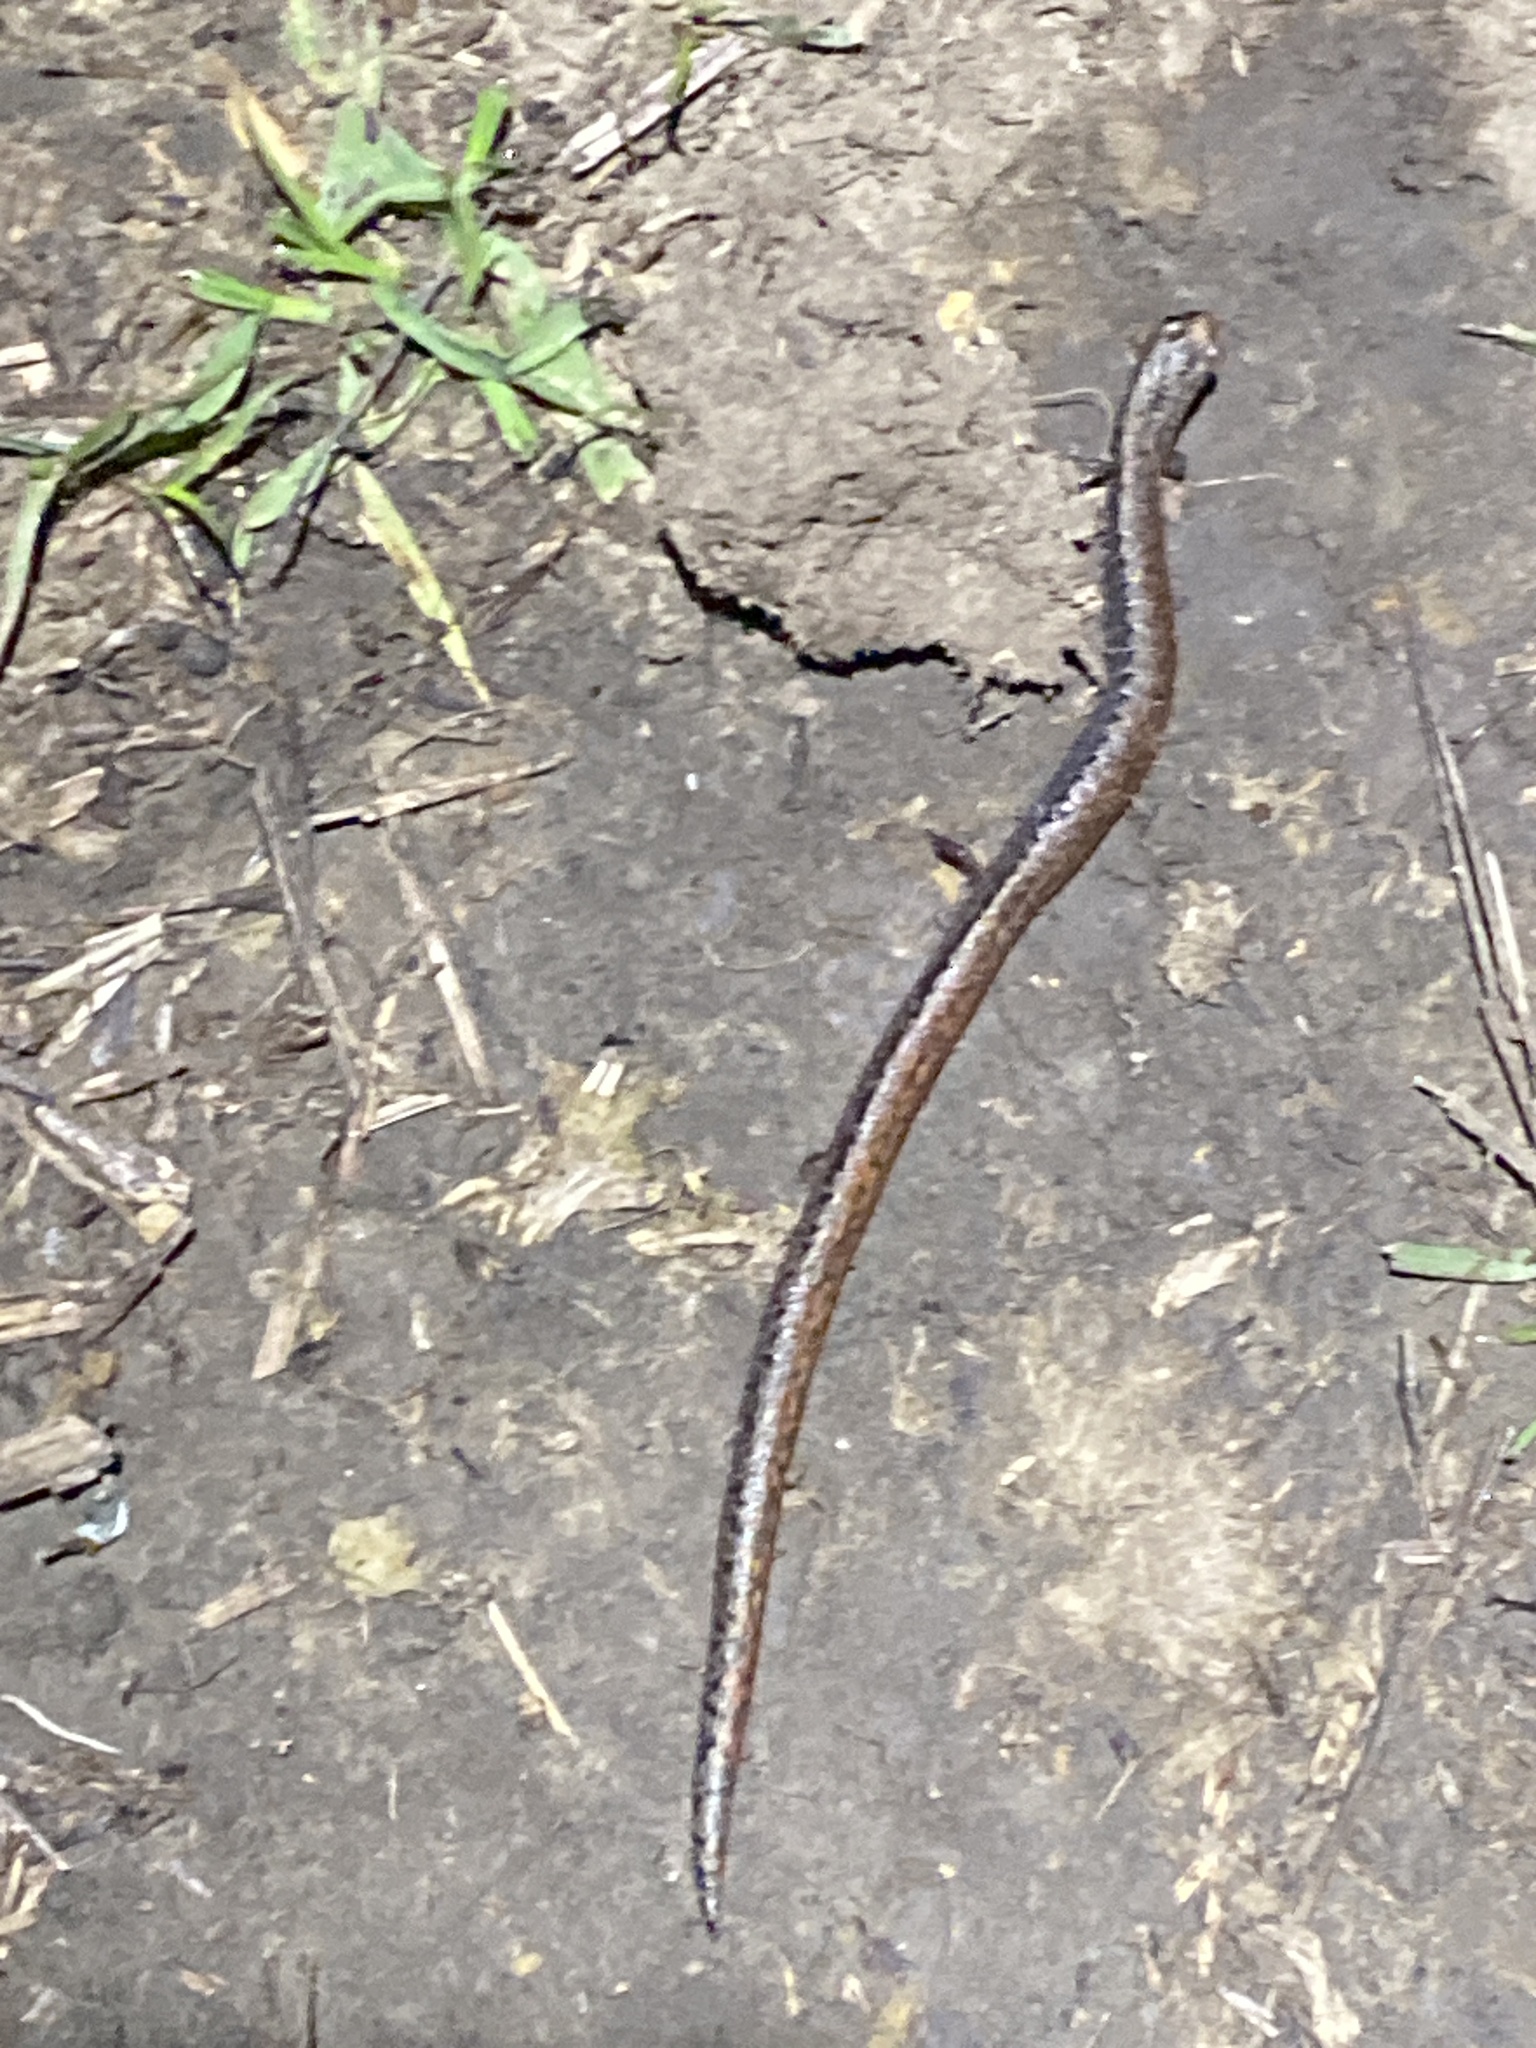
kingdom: Animalia
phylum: Chordata
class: Amphibia
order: Caudata
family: Plethodontidae
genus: Batrachoseps
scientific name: Batrachoseps attenuatus
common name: California slender salamander
